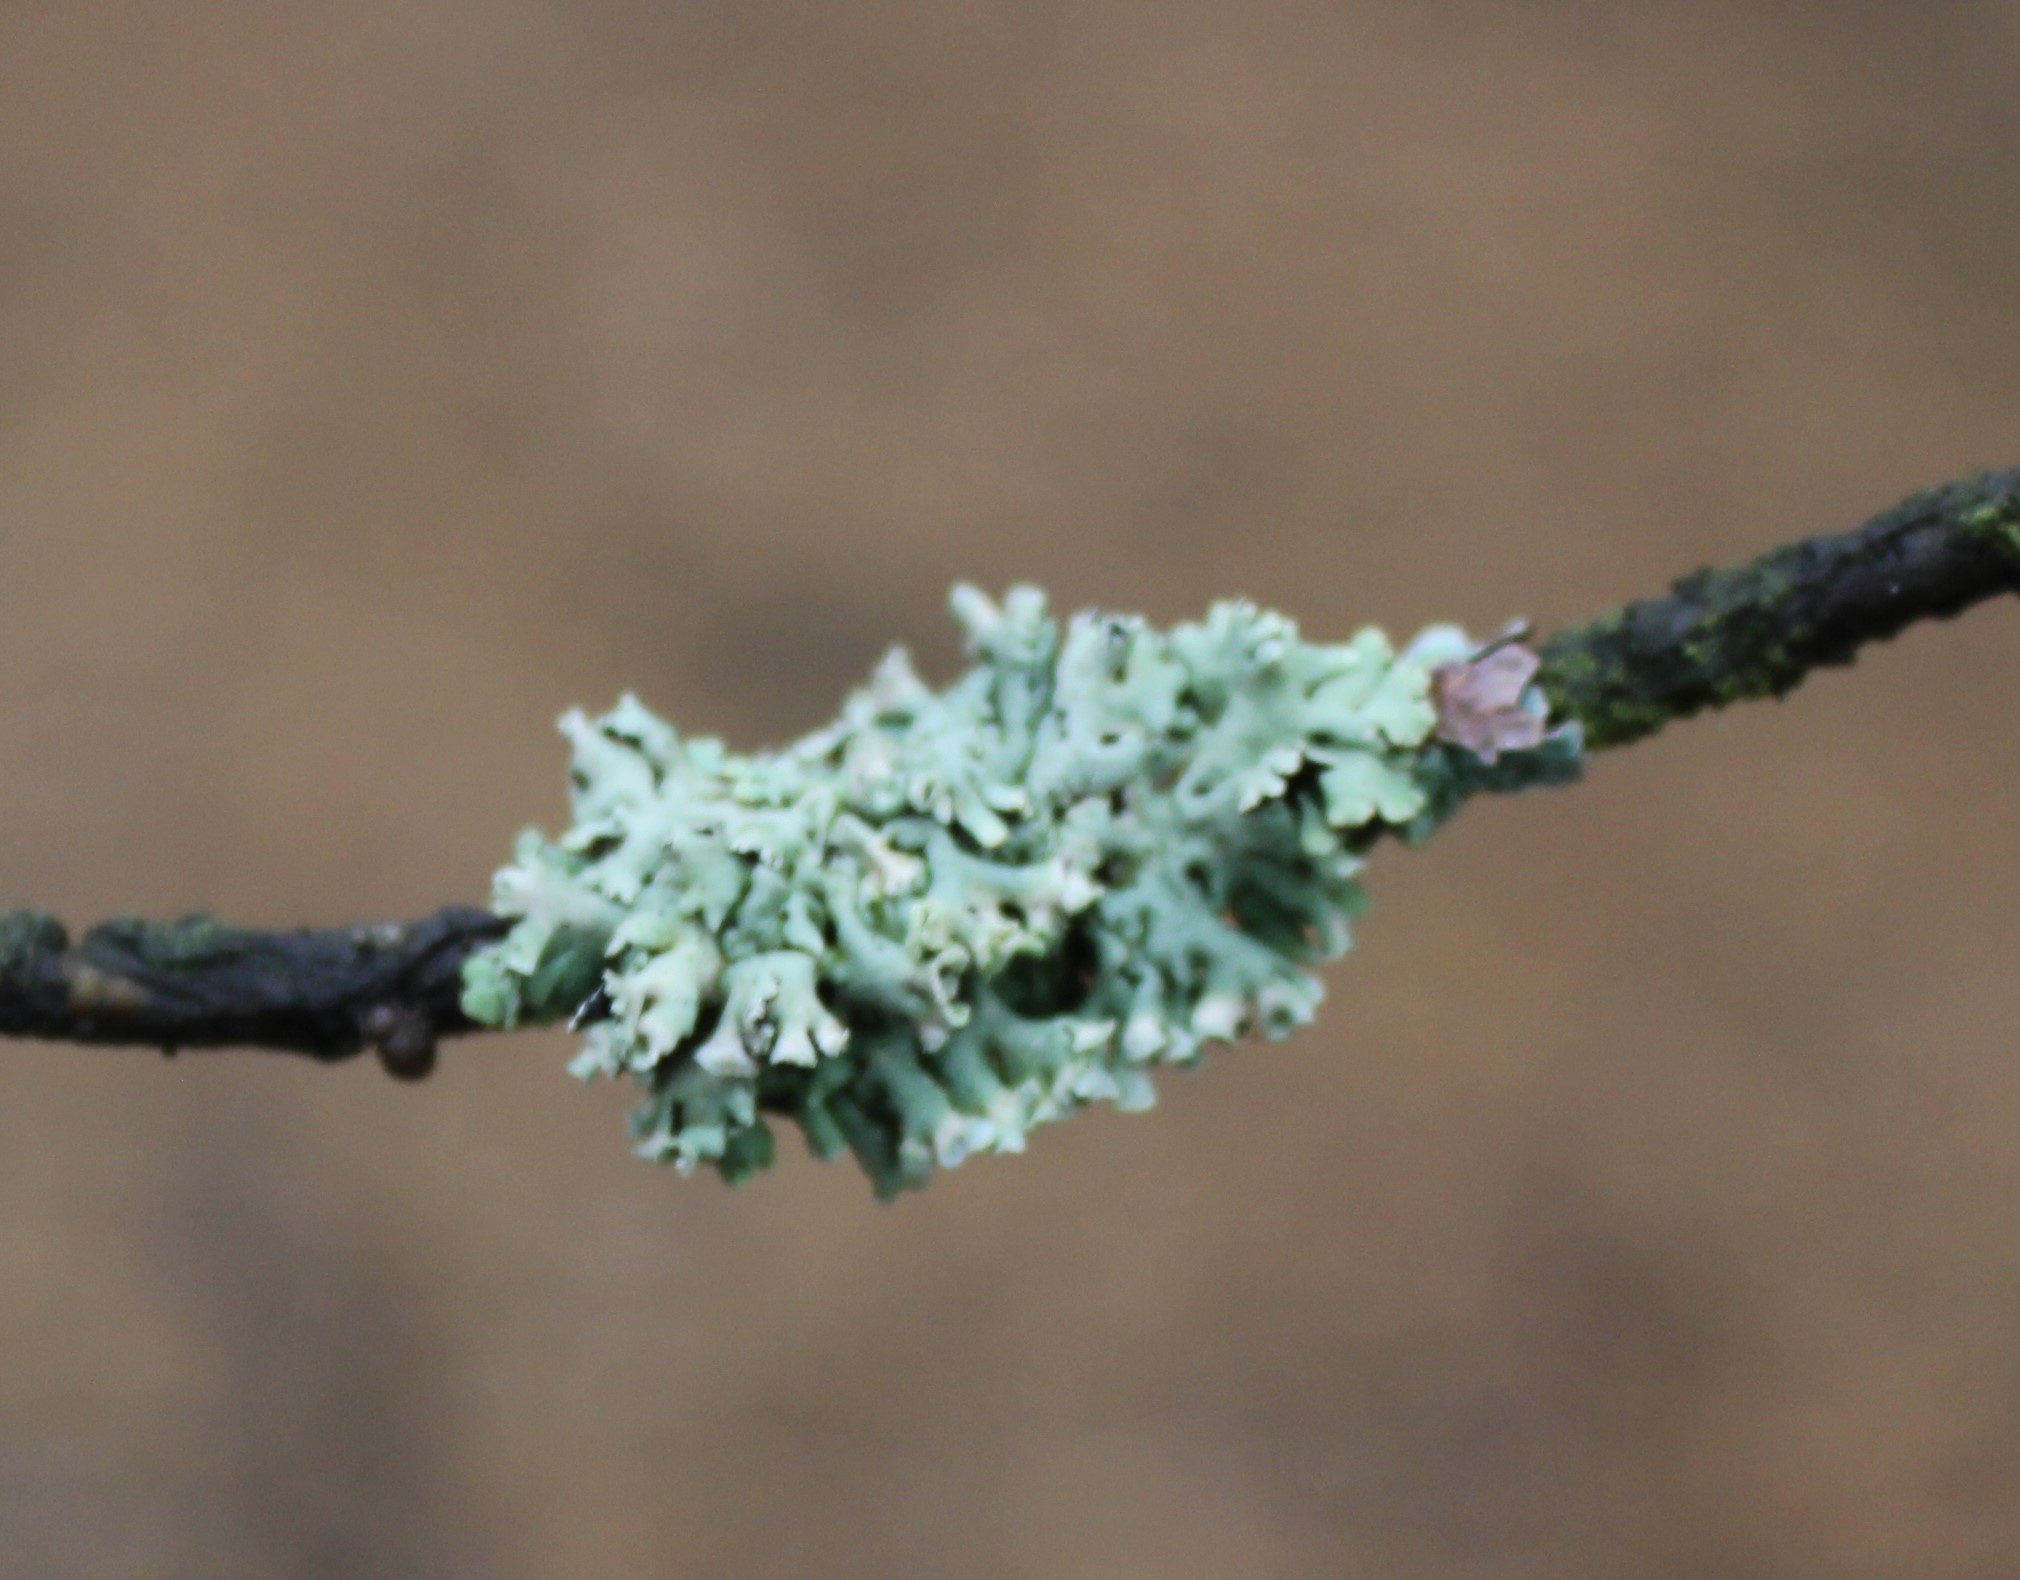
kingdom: Fungi
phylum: Ascomycota
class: Lecanoromycetes
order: Lecanorales
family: Parmeliaceae
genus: Hypogymnia
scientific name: Hypogymnia physodes
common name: Dark crottle
